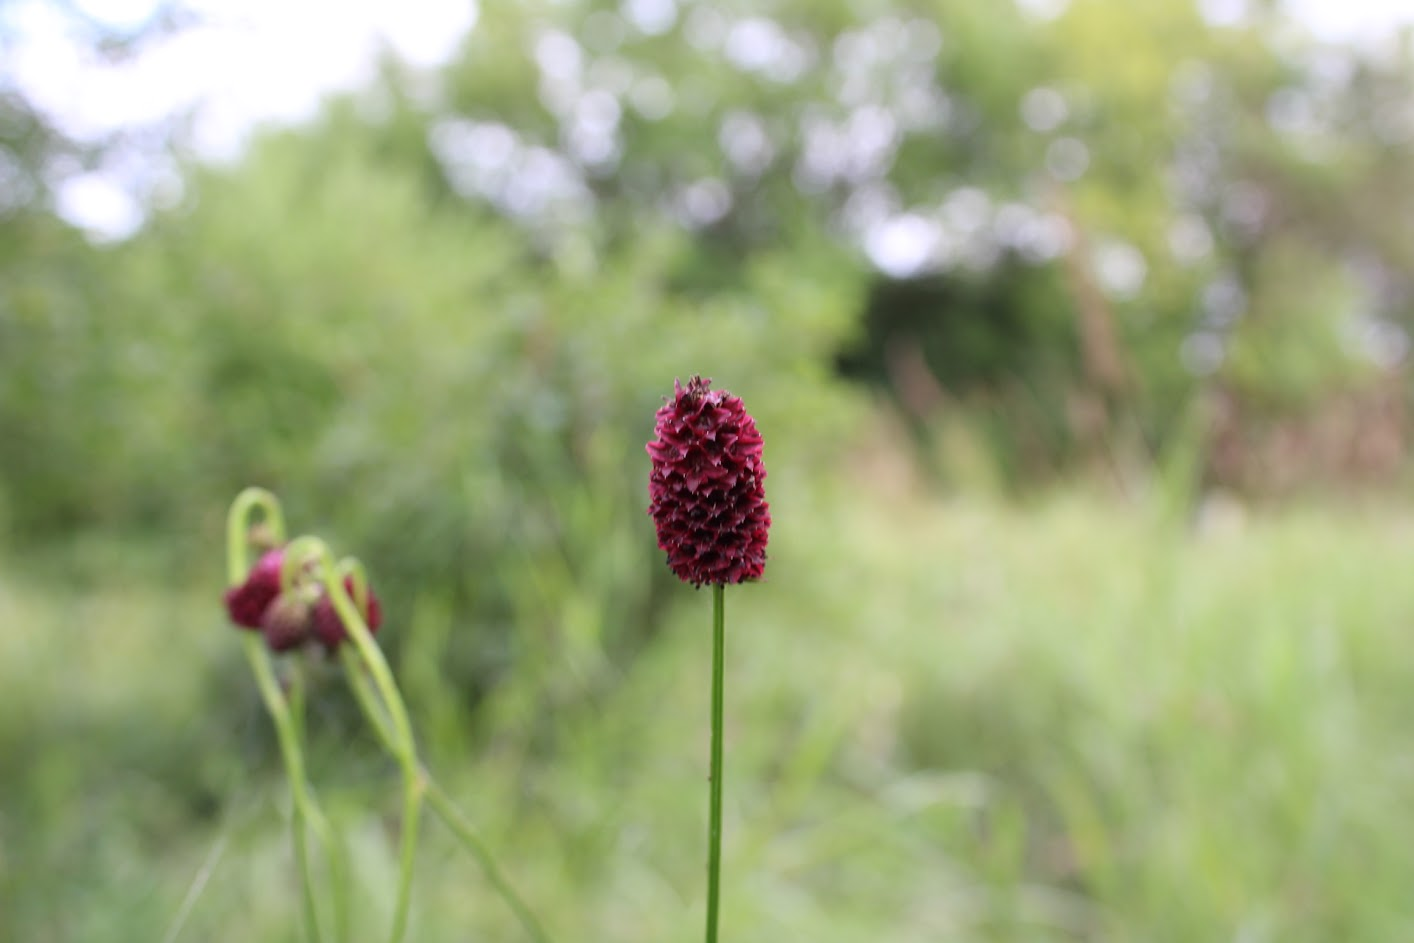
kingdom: Plantae
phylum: Tracheophyta
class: Magnoliopsida
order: Rosales
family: Rosaceae
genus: Sanguisorba
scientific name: Sanguisorba officinalis
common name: Great burnet
